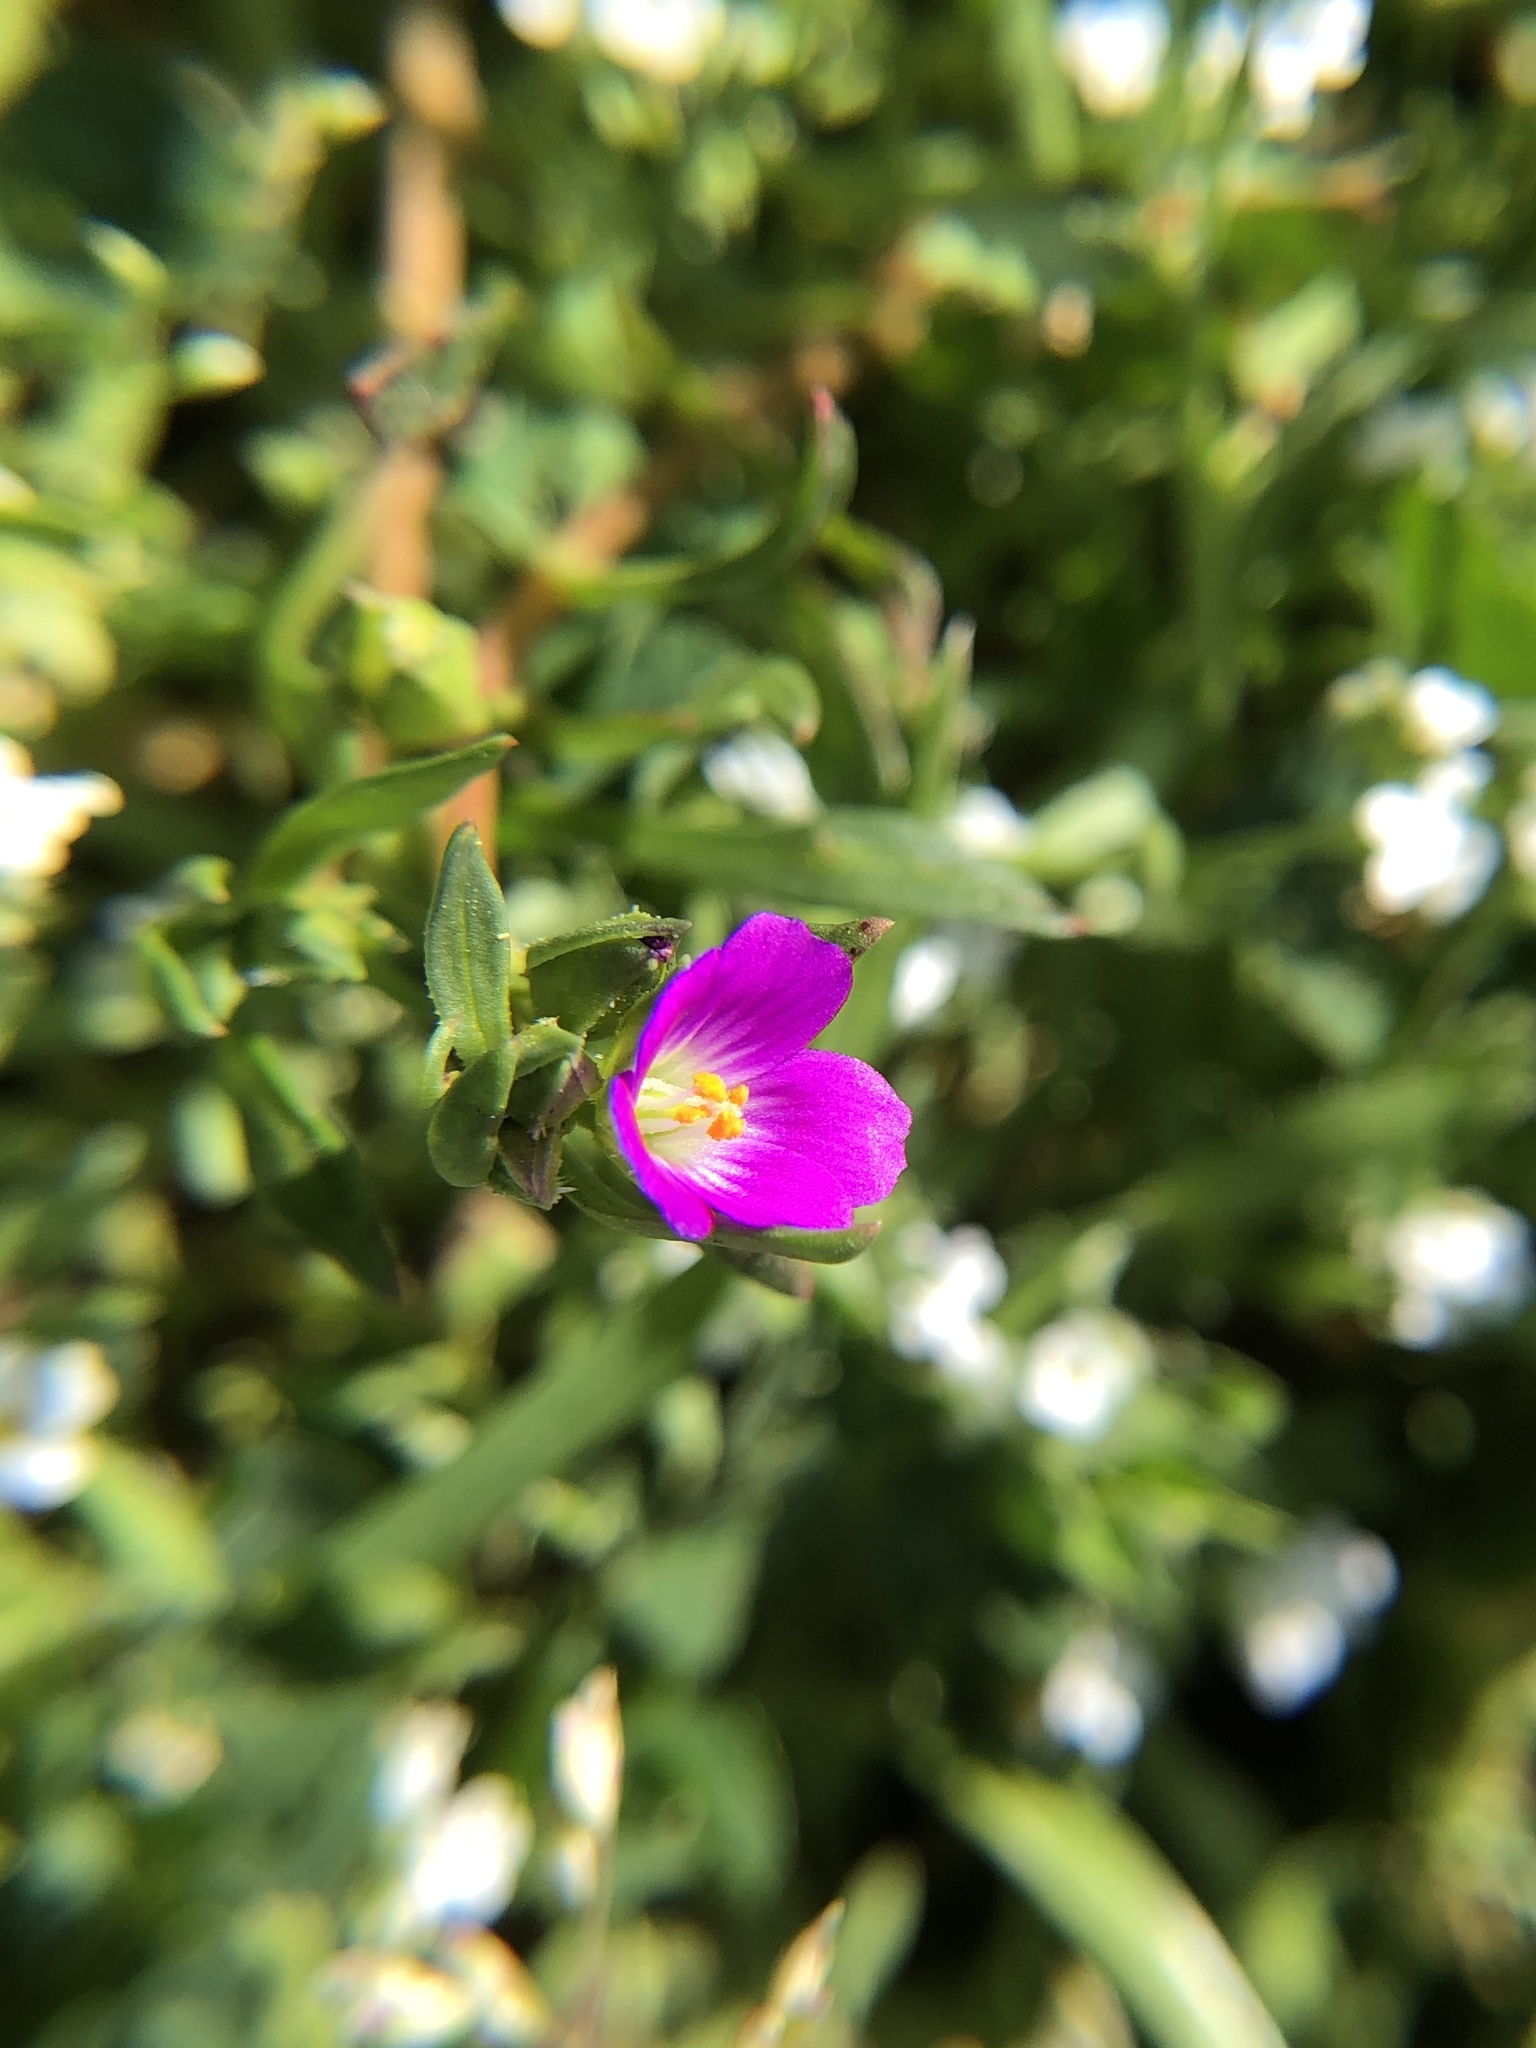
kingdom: Plantae
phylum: Tracheophyta
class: Magnoliopsida
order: Caryophyllales
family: Montiaceae
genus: Calandrinia
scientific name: Calandrinia menziesii
